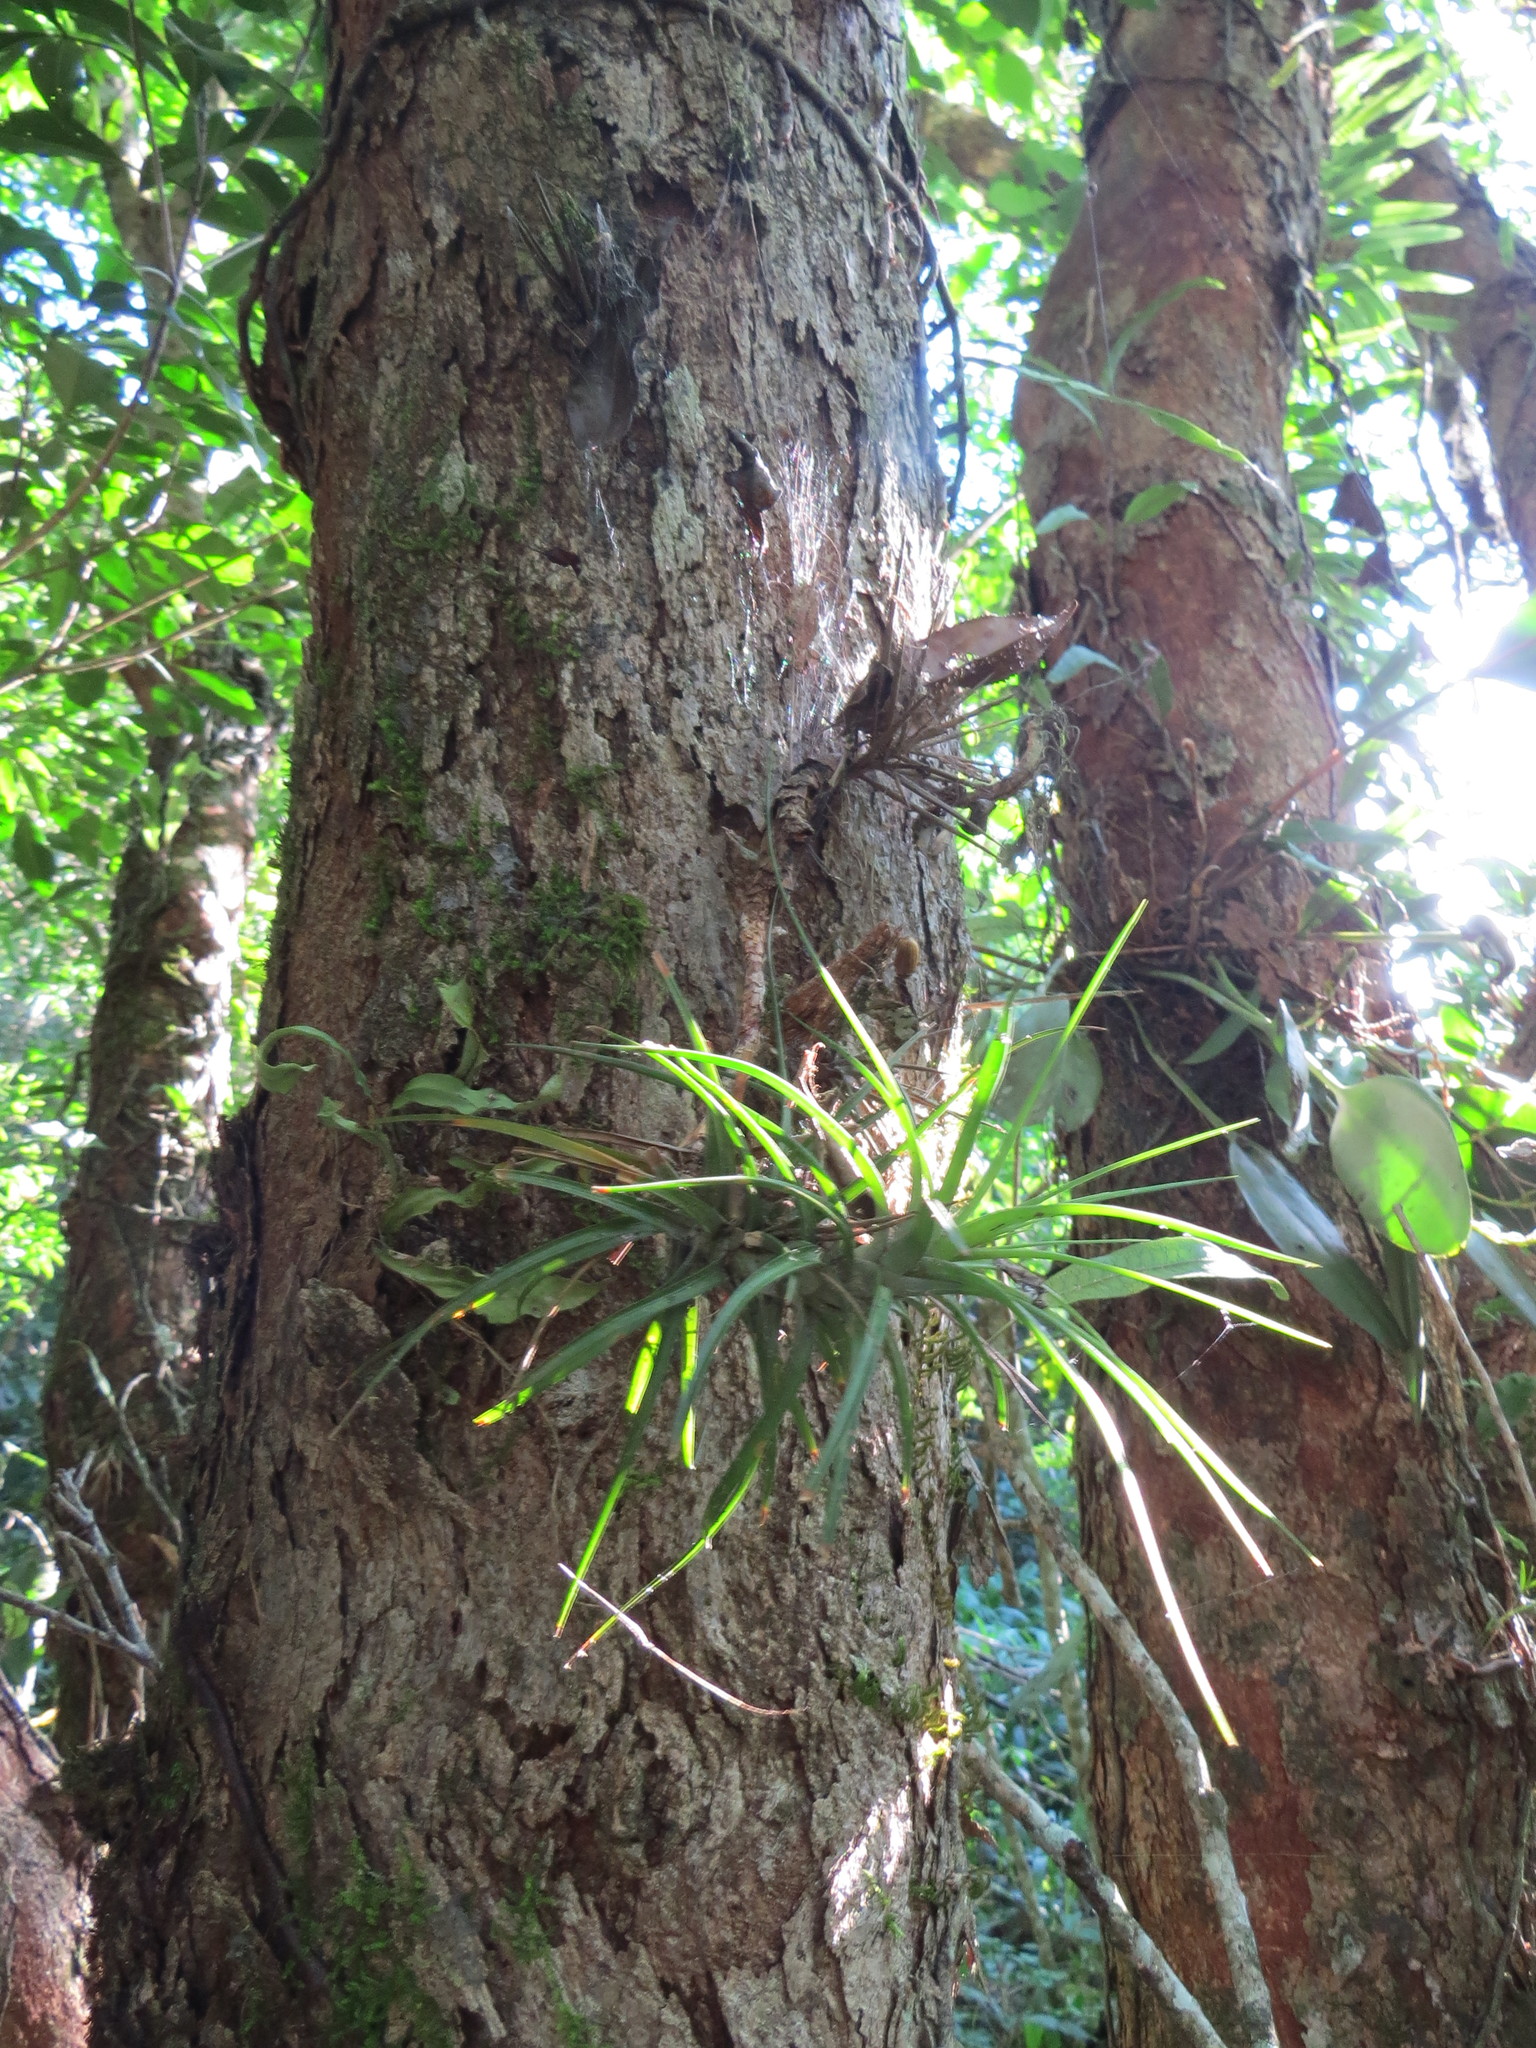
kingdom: Plantae
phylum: Tracheophyta
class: Liliopsida
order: Poales
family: Bromeliaceae
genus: Tillandsia
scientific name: Tillandsia tenuifolia
